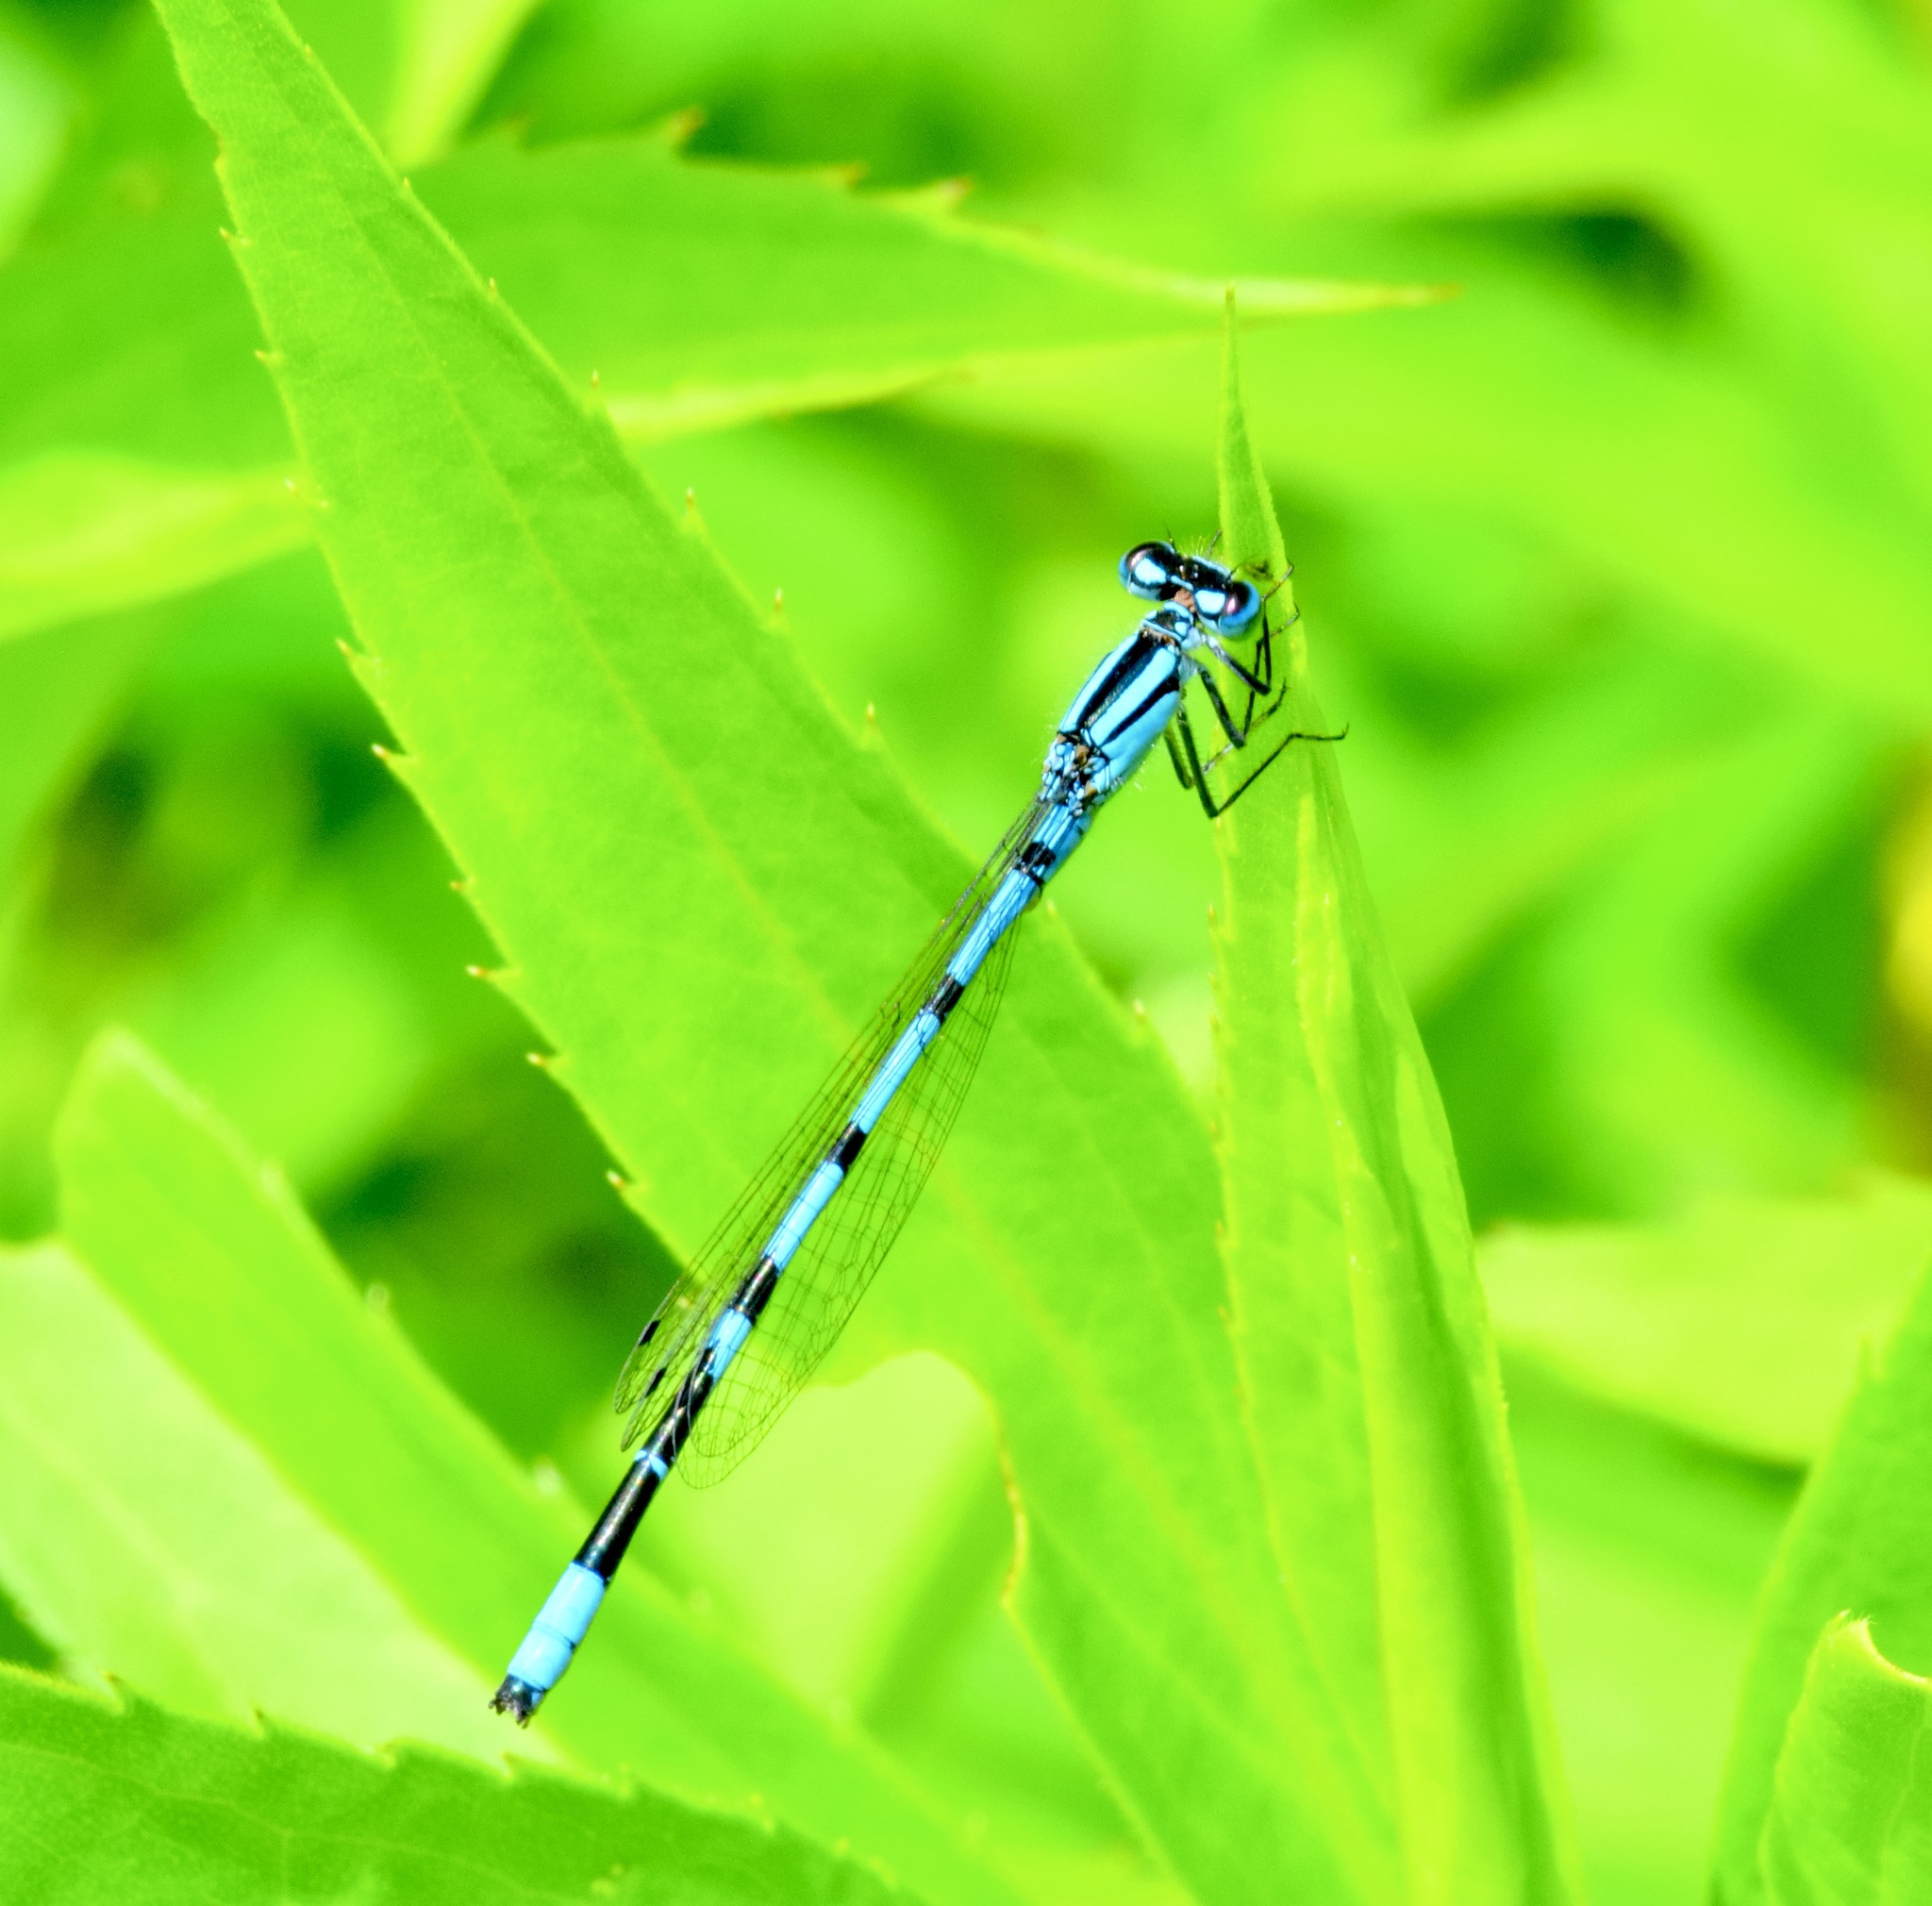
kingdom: Animalia
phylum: Arthropoda
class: Insecta
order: Odonata
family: Coenagrionidae
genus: Enallagma
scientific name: Enallagma ebrium
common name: Marsh bluet
